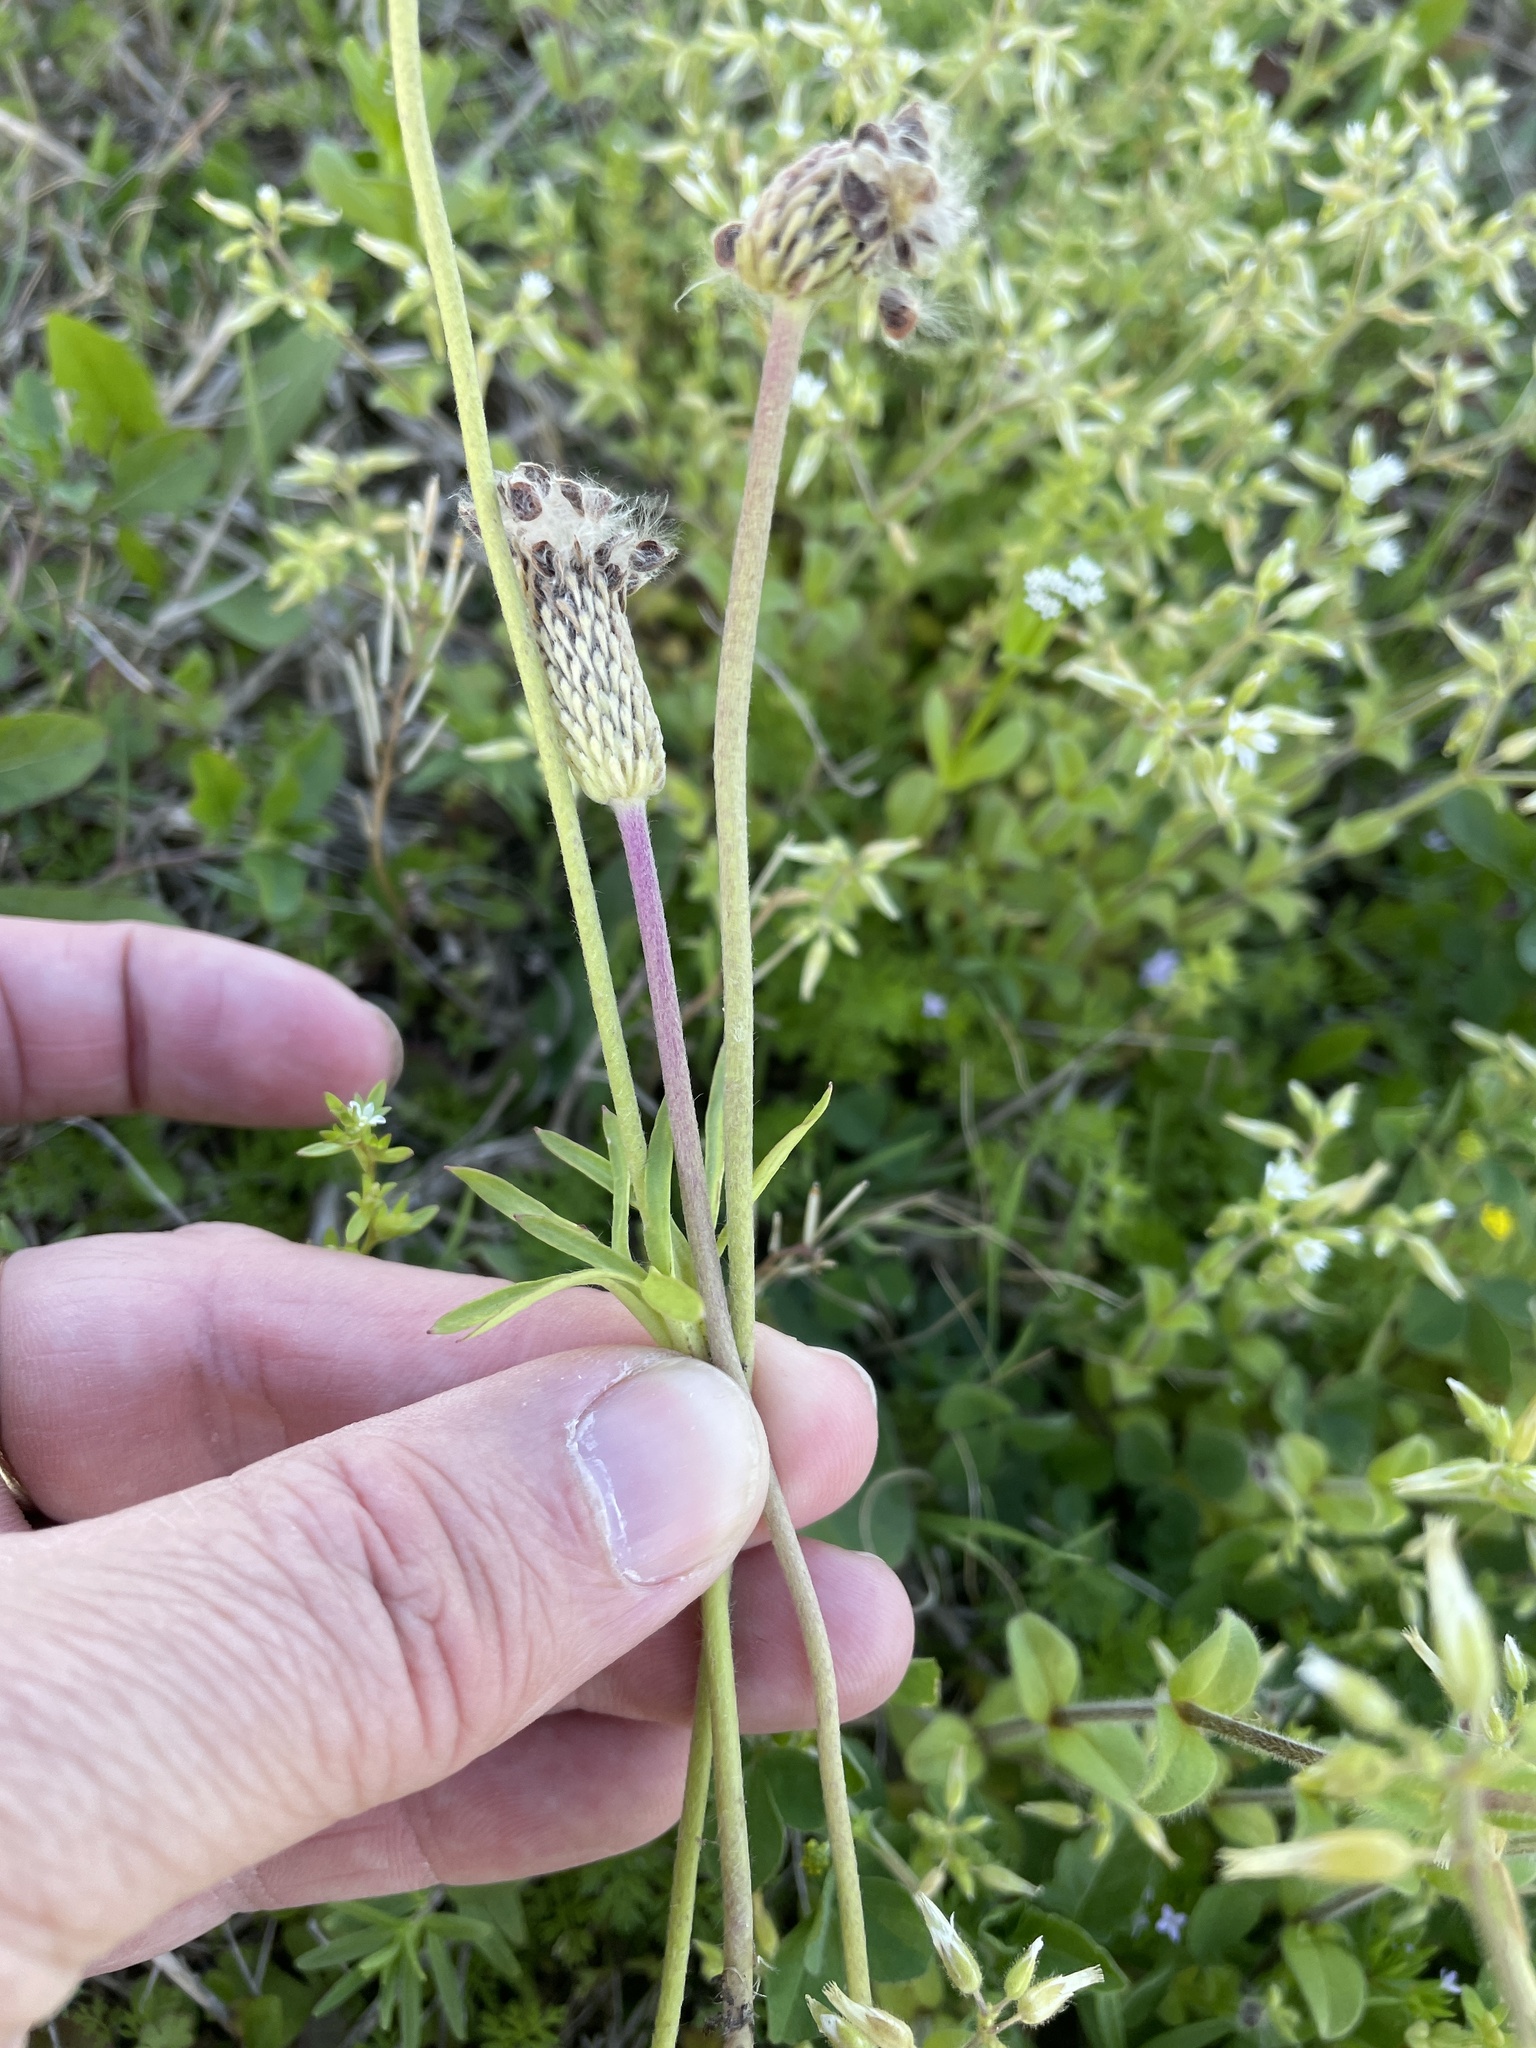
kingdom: Plantae
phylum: Tracheophyta
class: Magnoliopsida
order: Ranunculales
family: Ranunculaceae
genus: Anemone
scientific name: Anemone berlandieri
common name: Ten-petal anemone
